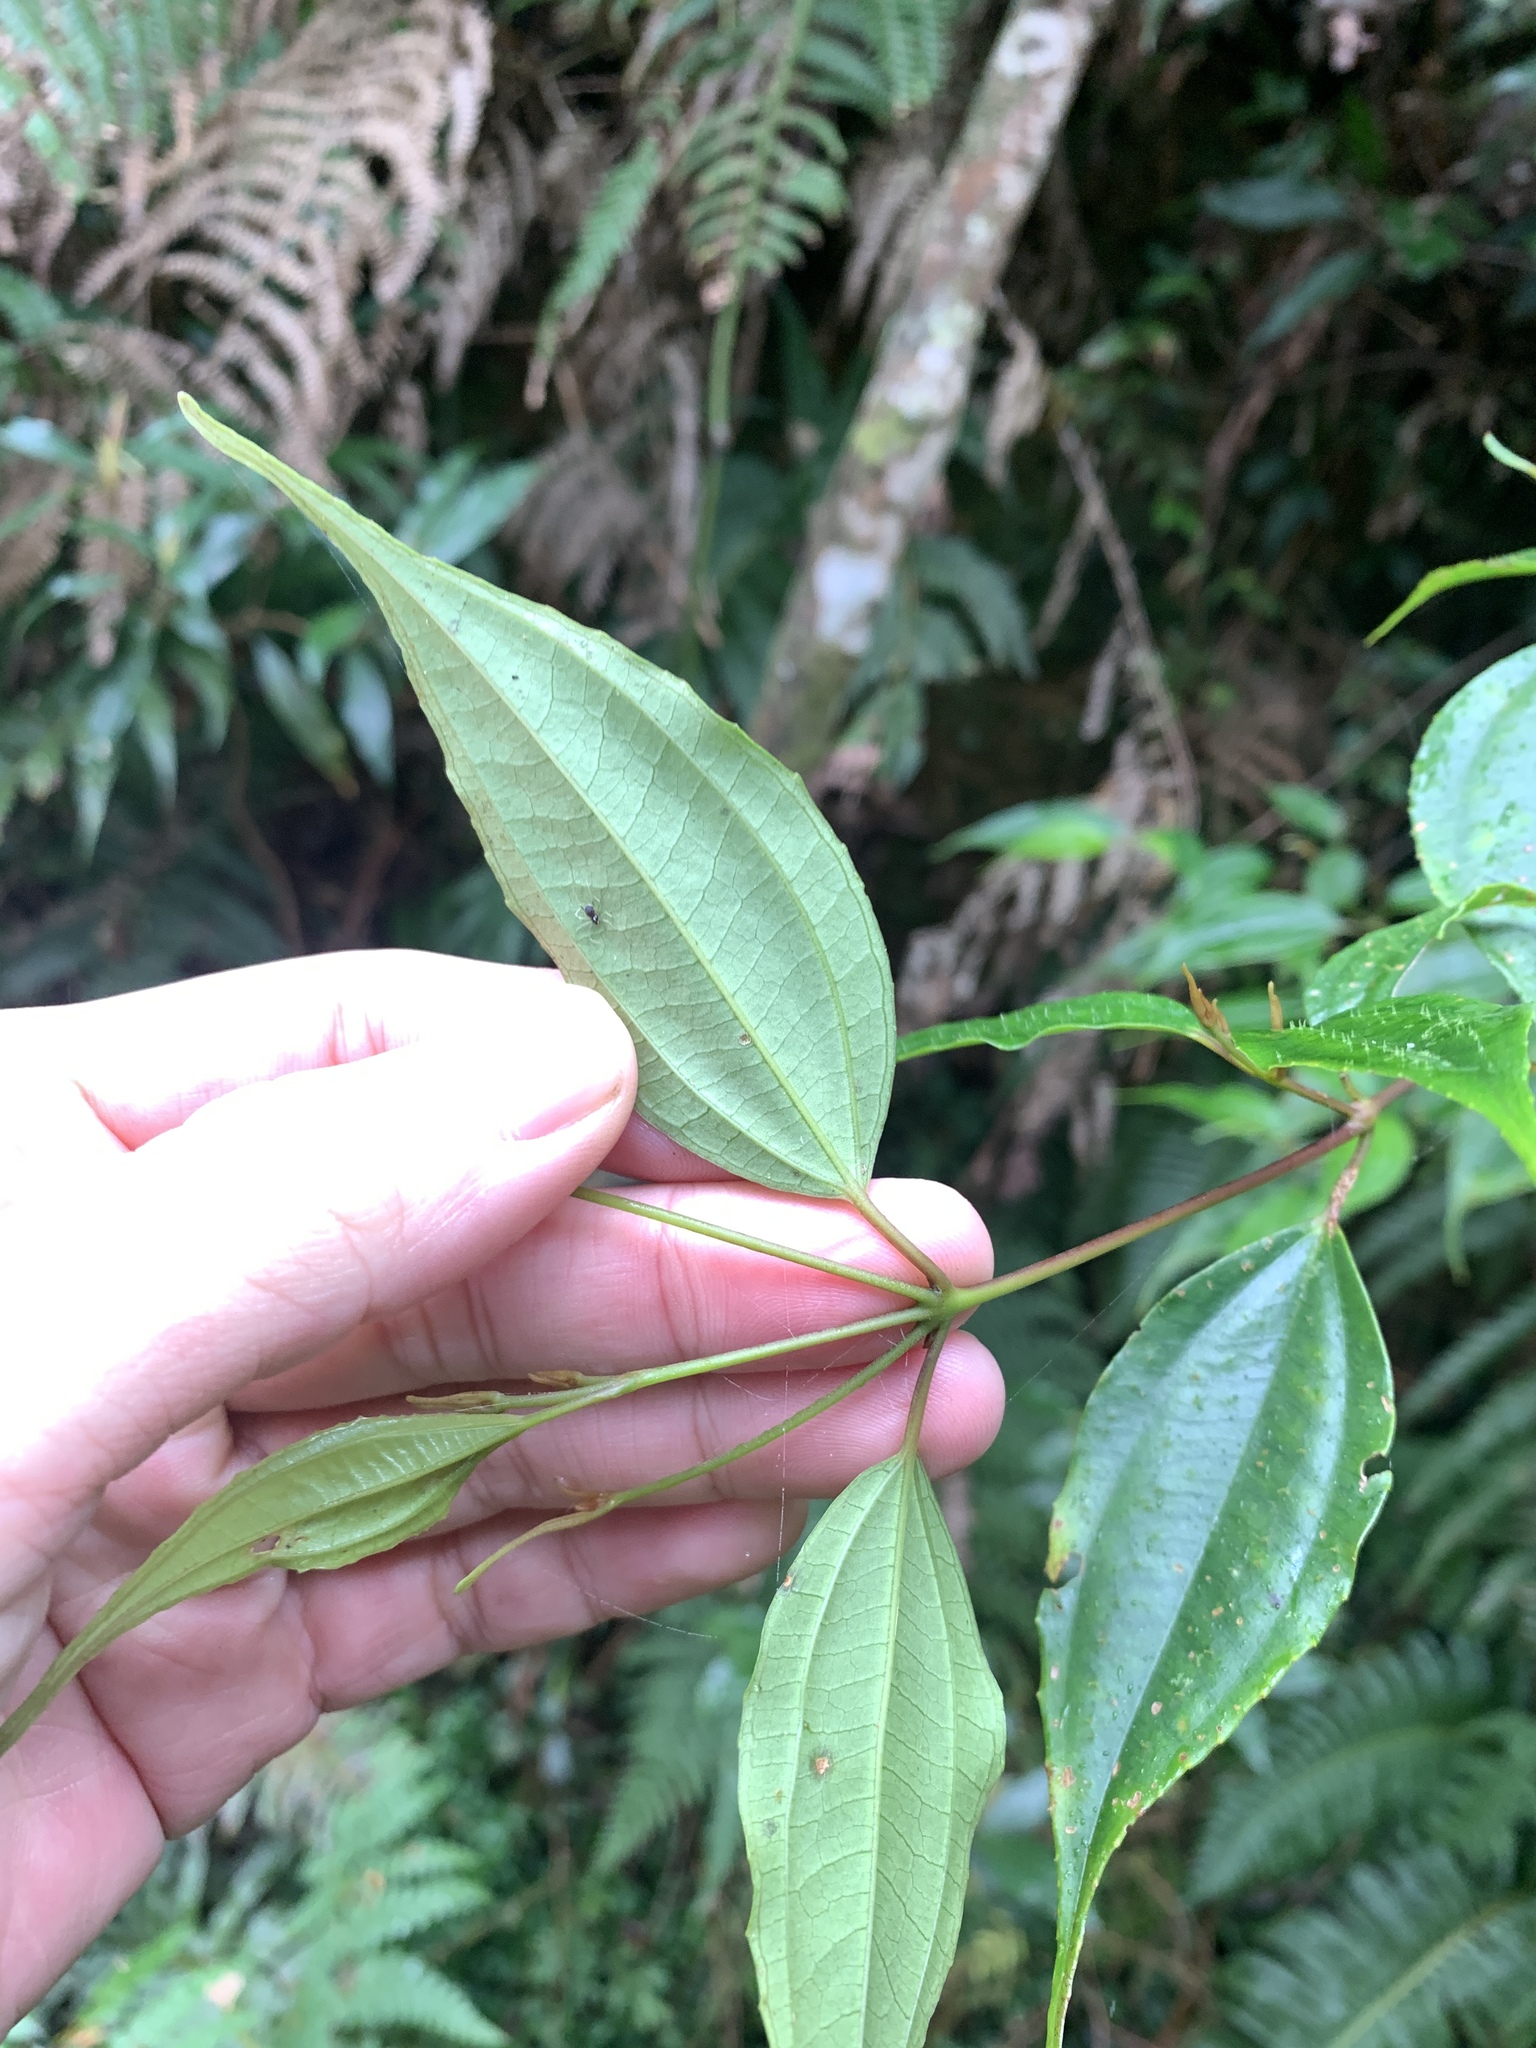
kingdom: Plantae
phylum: Tracheophyta
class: Magnoliopsida
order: Myrtales
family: Melastomataceae
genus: Barthea
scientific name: Barthea barthei
